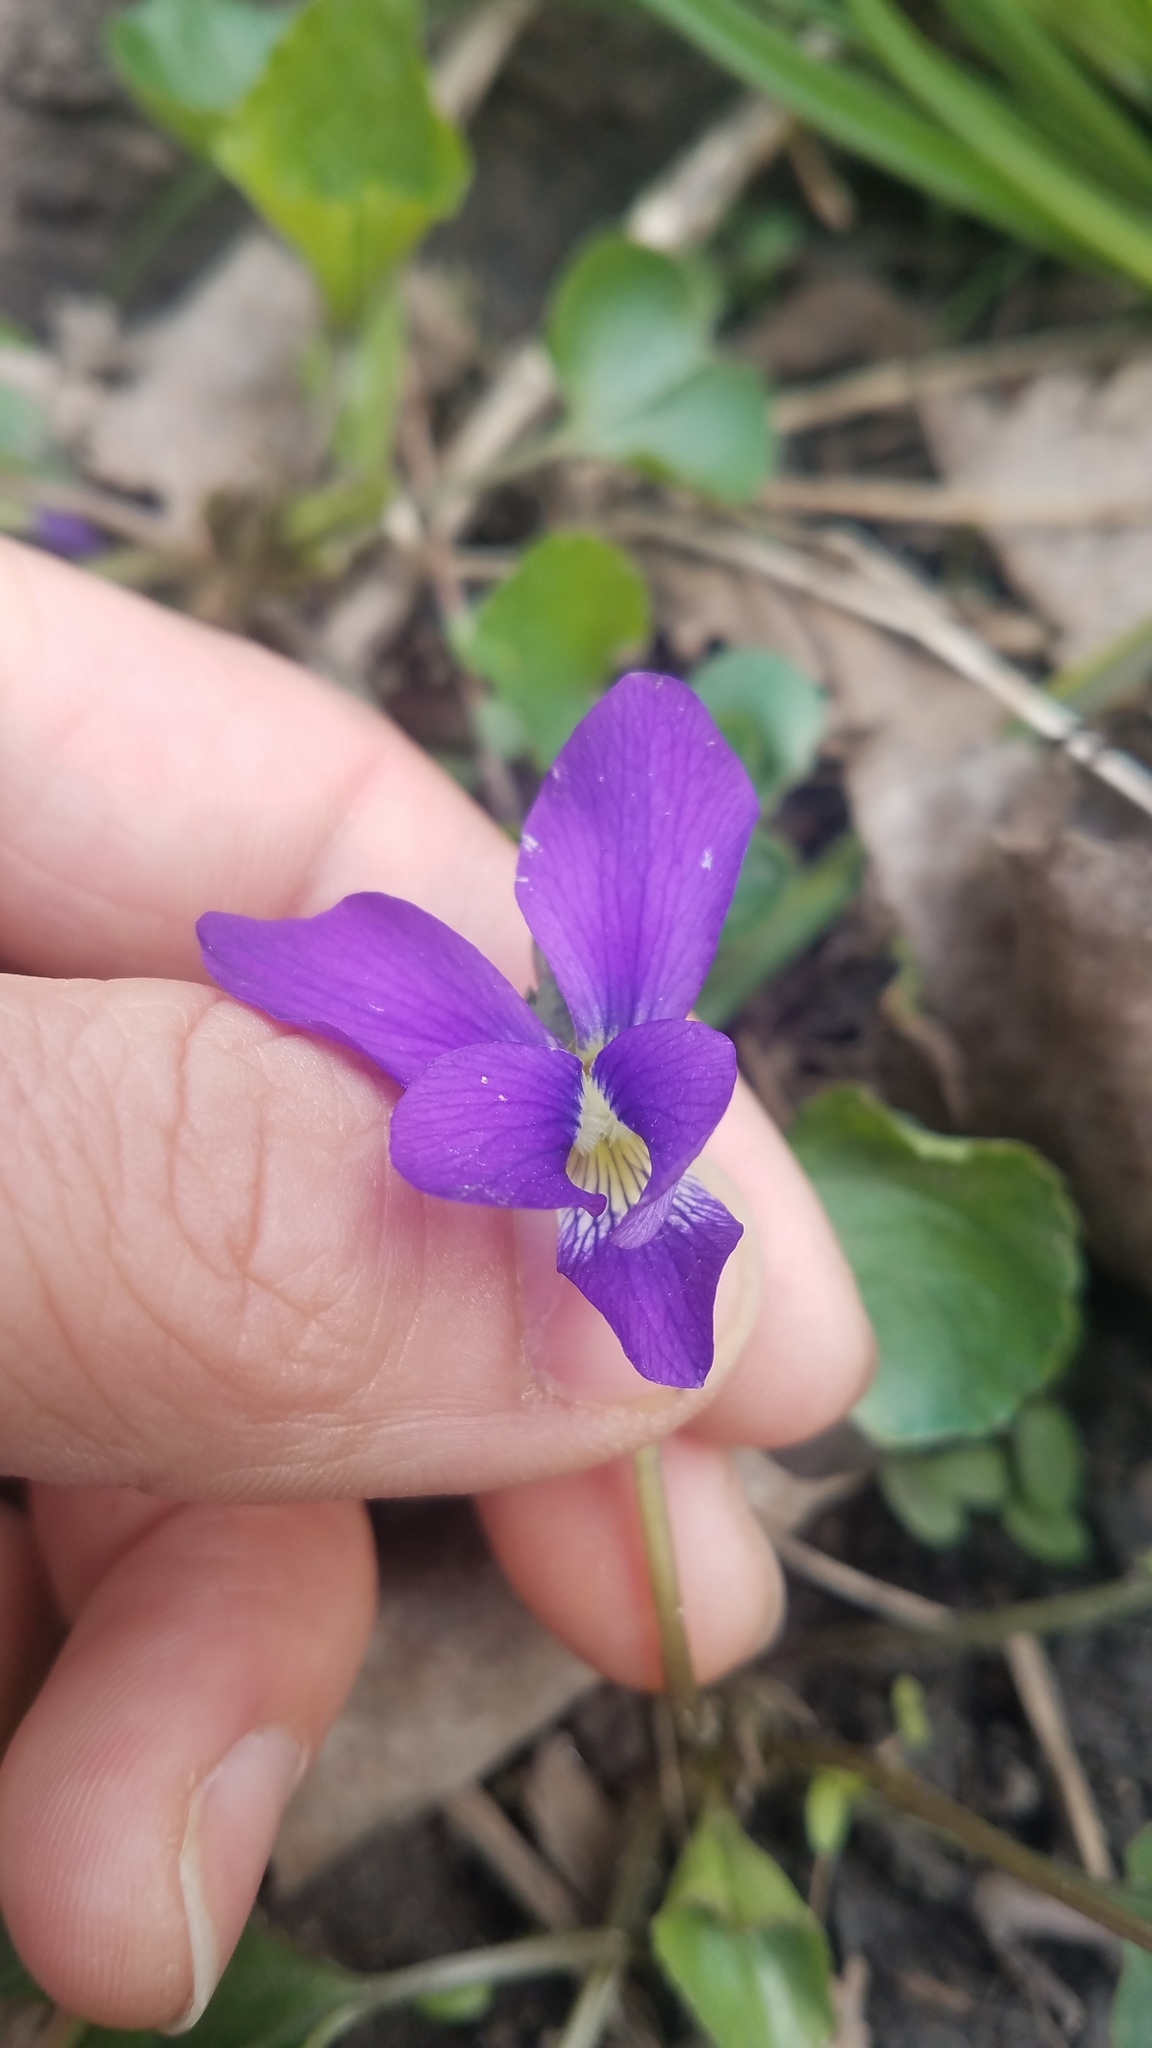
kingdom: Plantae
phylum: Tracheophyta
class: Magnoliopsida
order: Malpighiales
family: Violaceae
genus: Viola
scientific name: Viola sororia
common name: Dooryard violet
